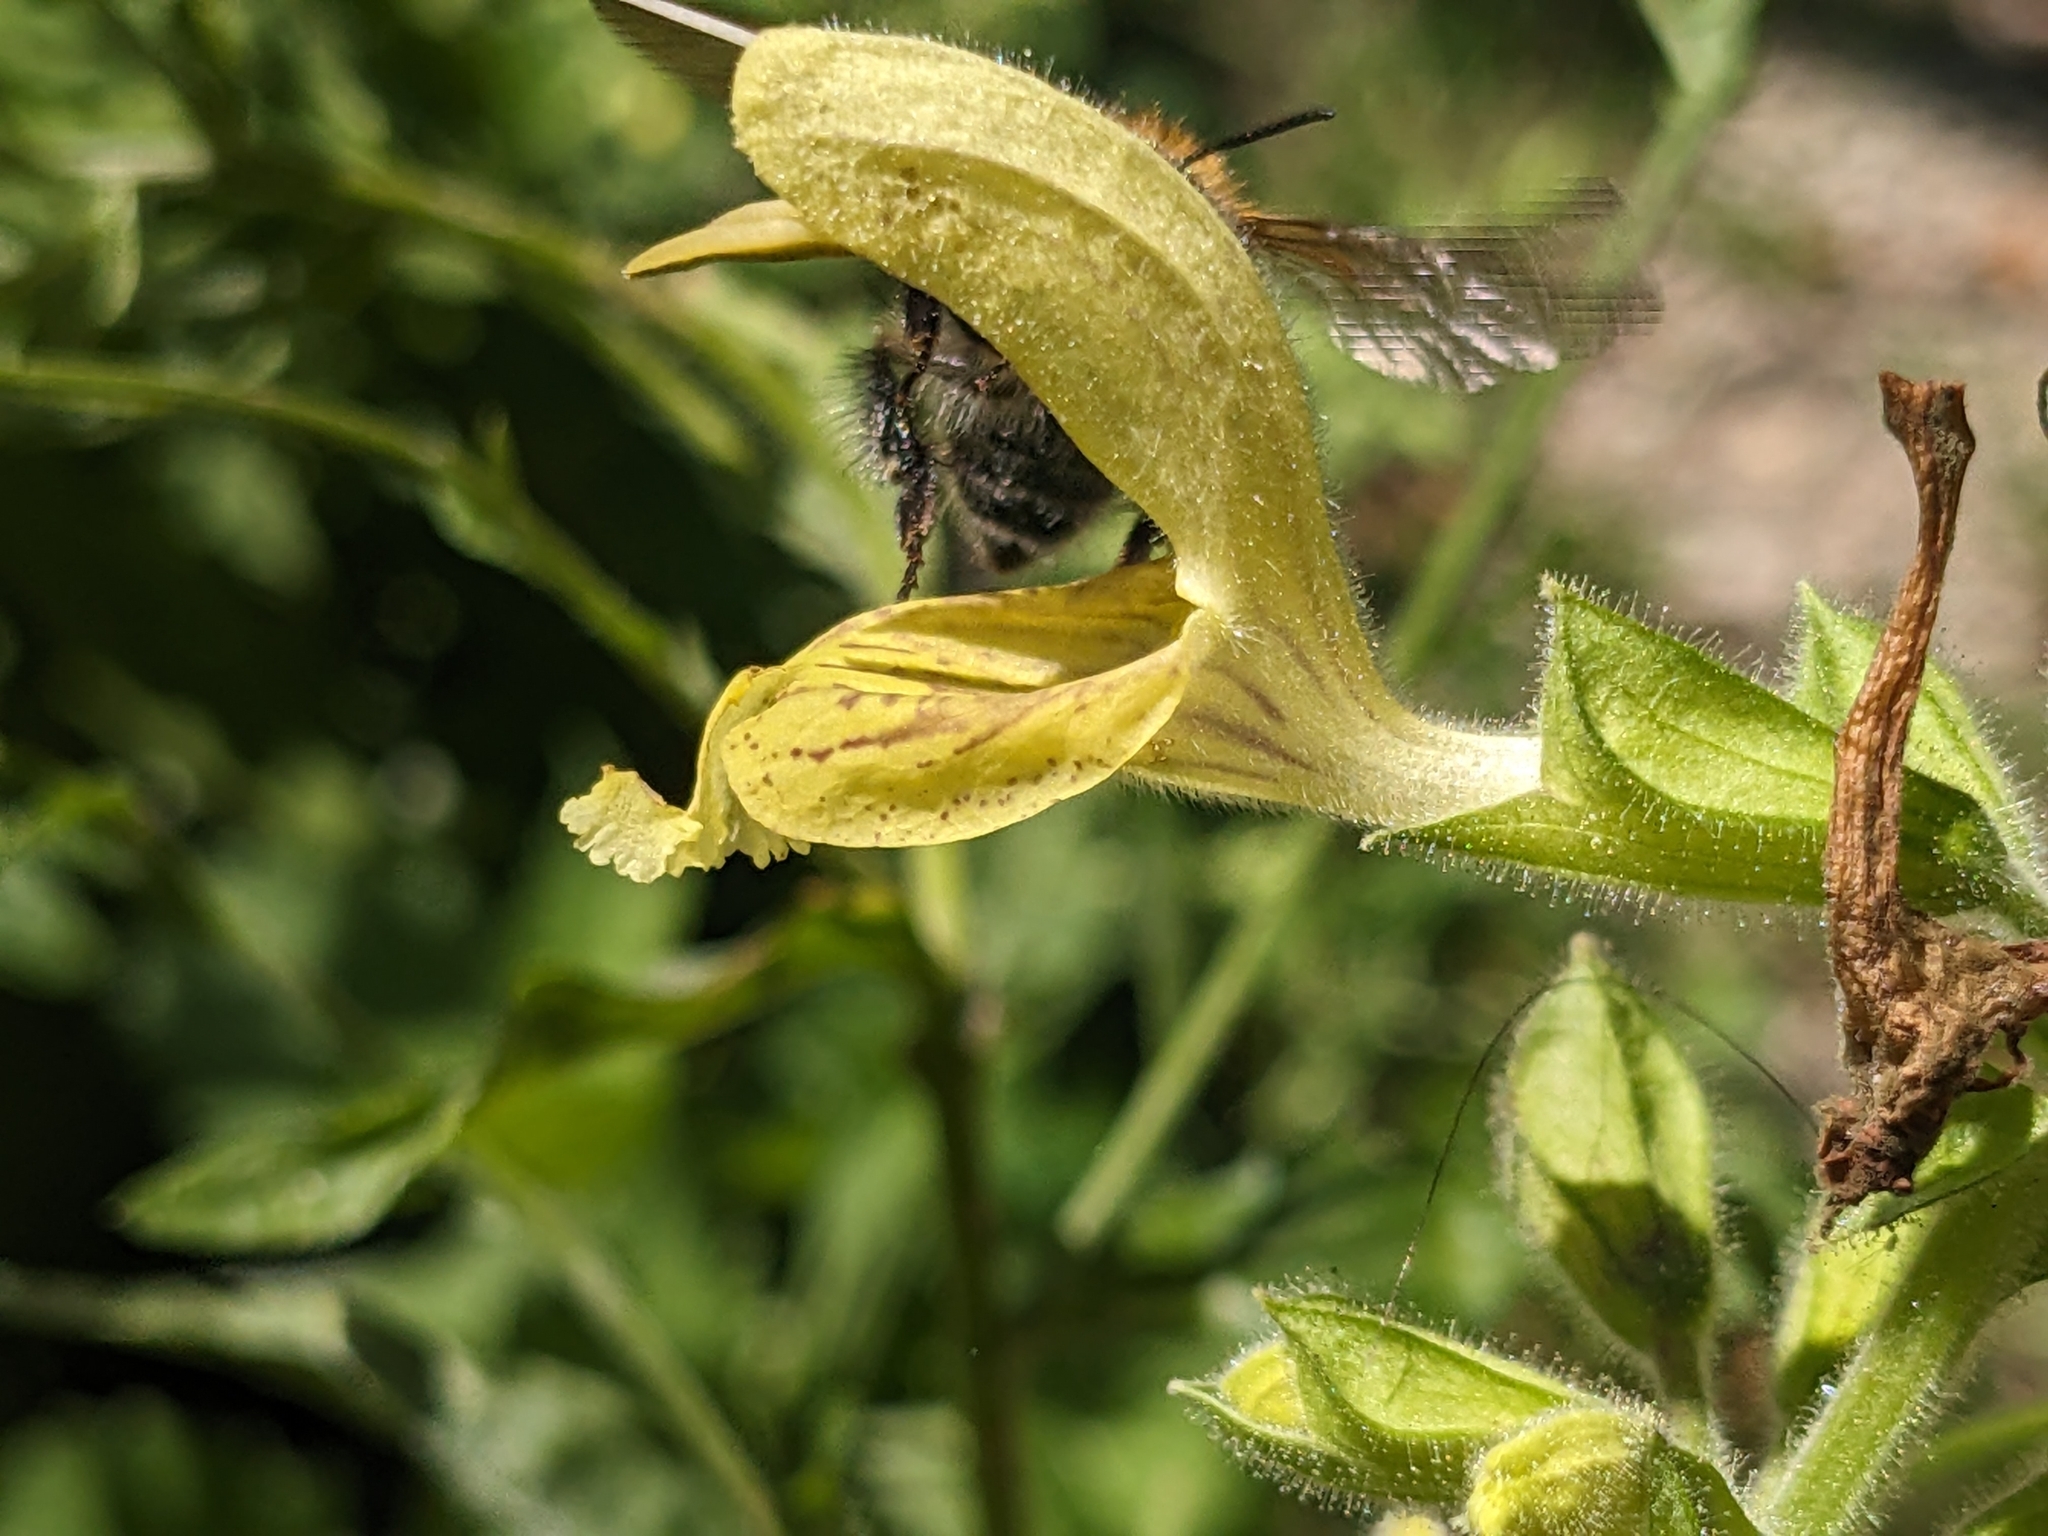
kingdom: Animalia
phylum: Arthropoda
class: Insecta
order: Hymenoptera
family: Apidae
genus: Bombus
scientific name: Bombus pascuorum
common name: Common carder bee
